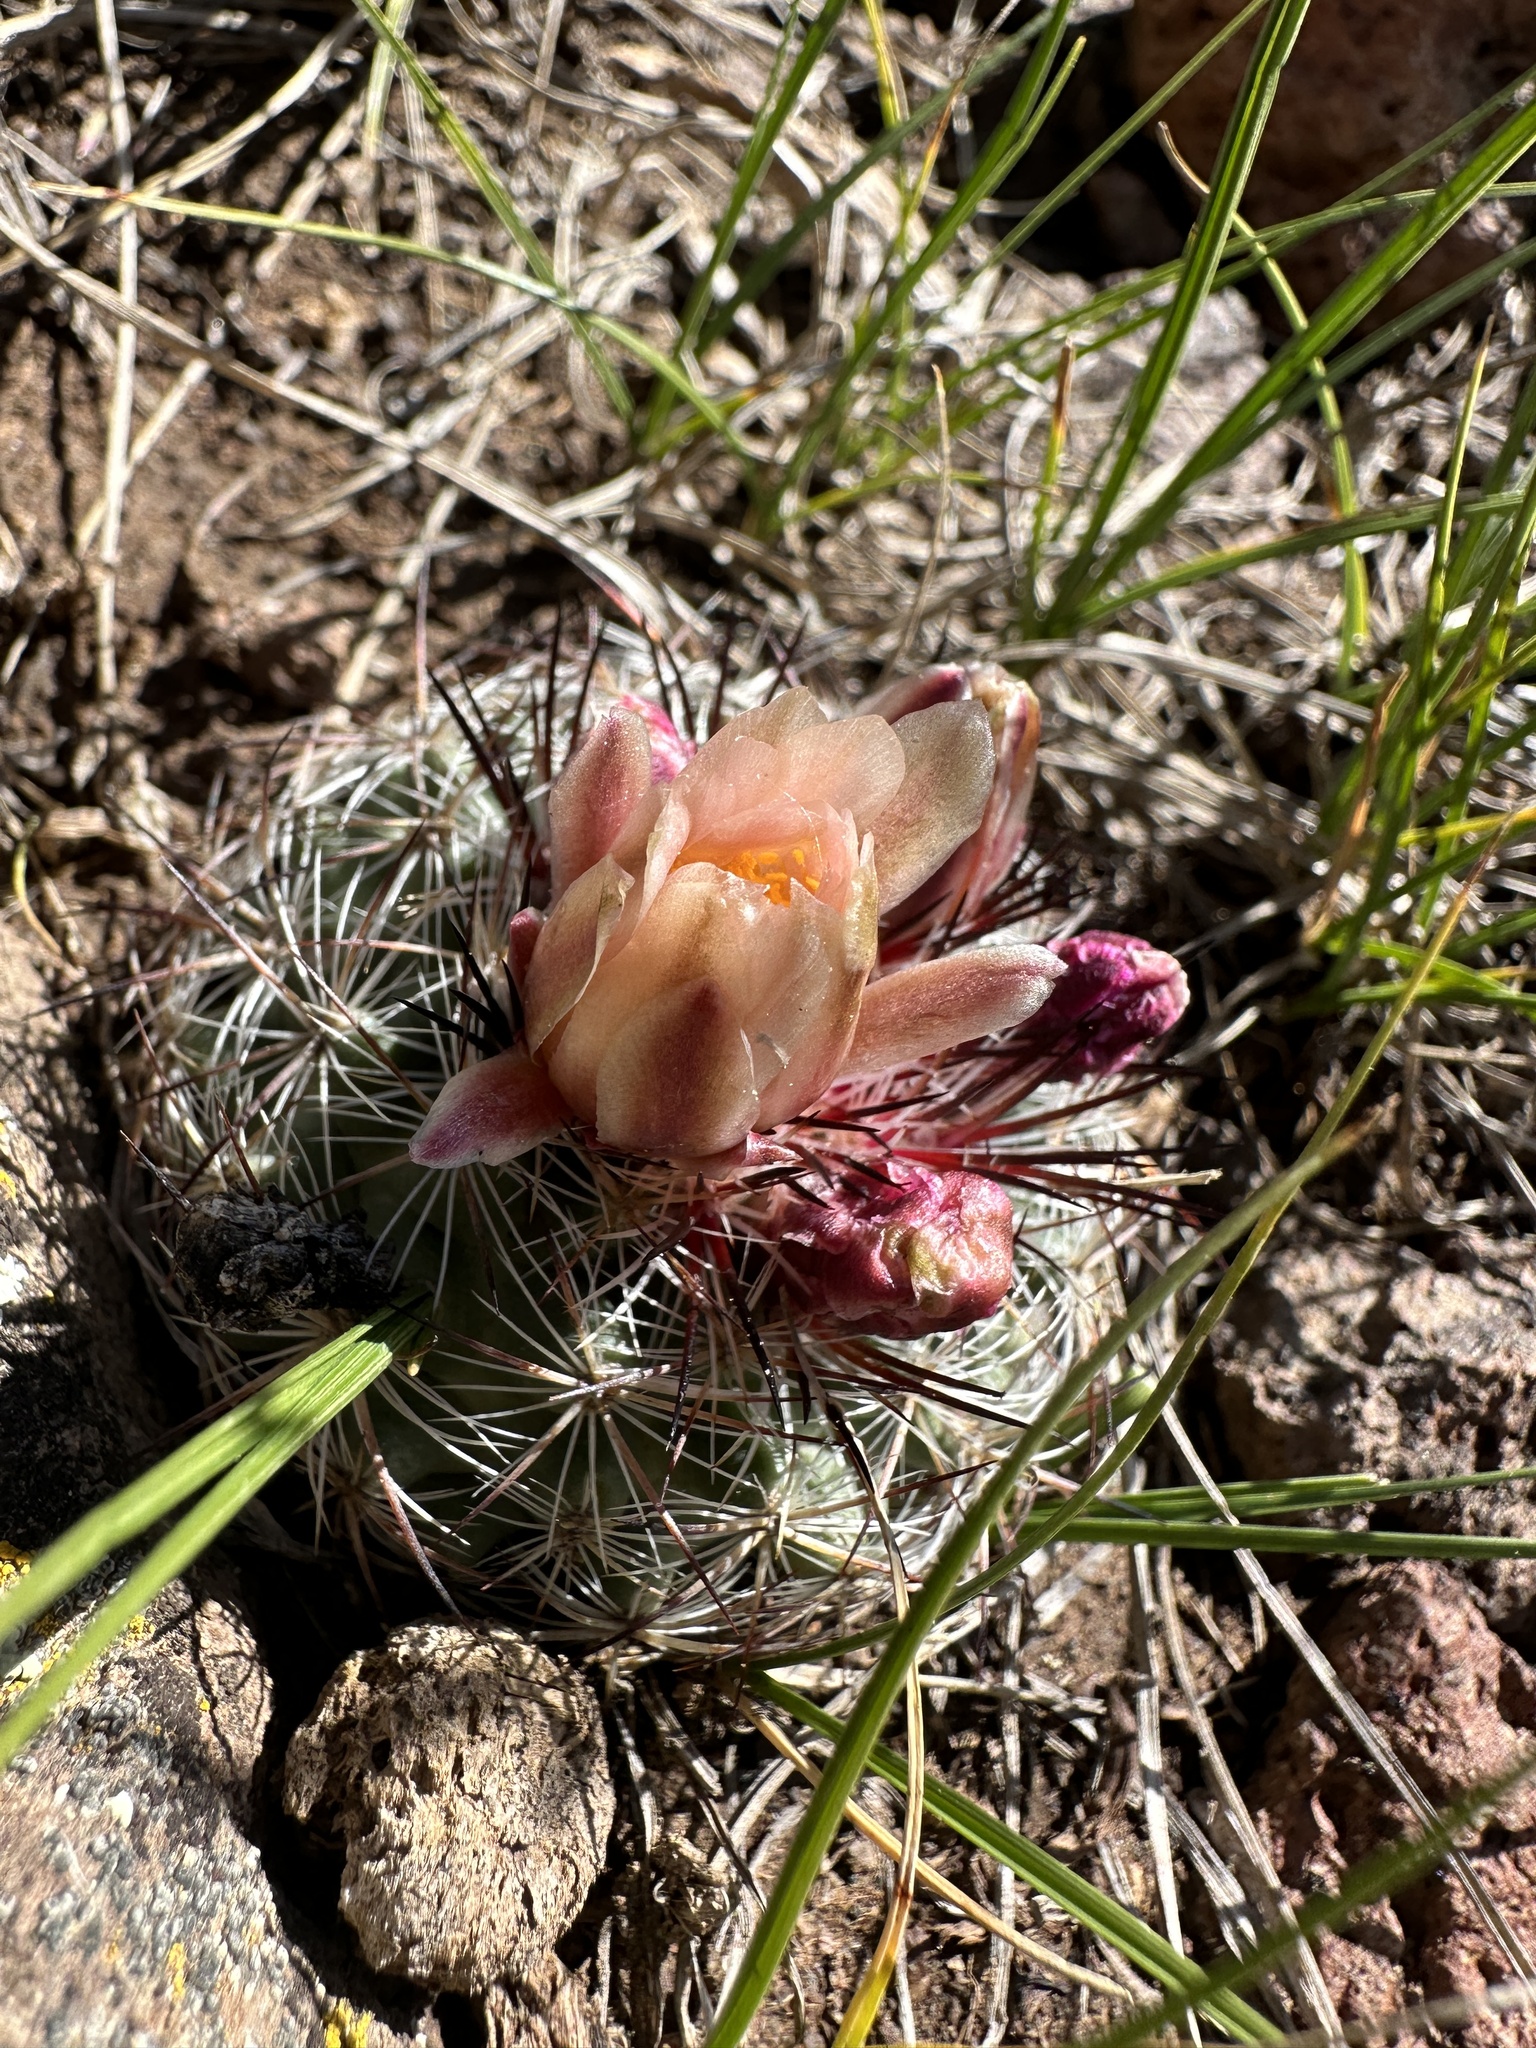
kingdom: Plantae
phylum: Tracheophyta
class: Magnoliopsida
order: Caryophyllales
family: Cactaceae
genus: Pediocactus
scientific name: Pediocactus simpsonii
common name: Simpson's hedgehog cactus
